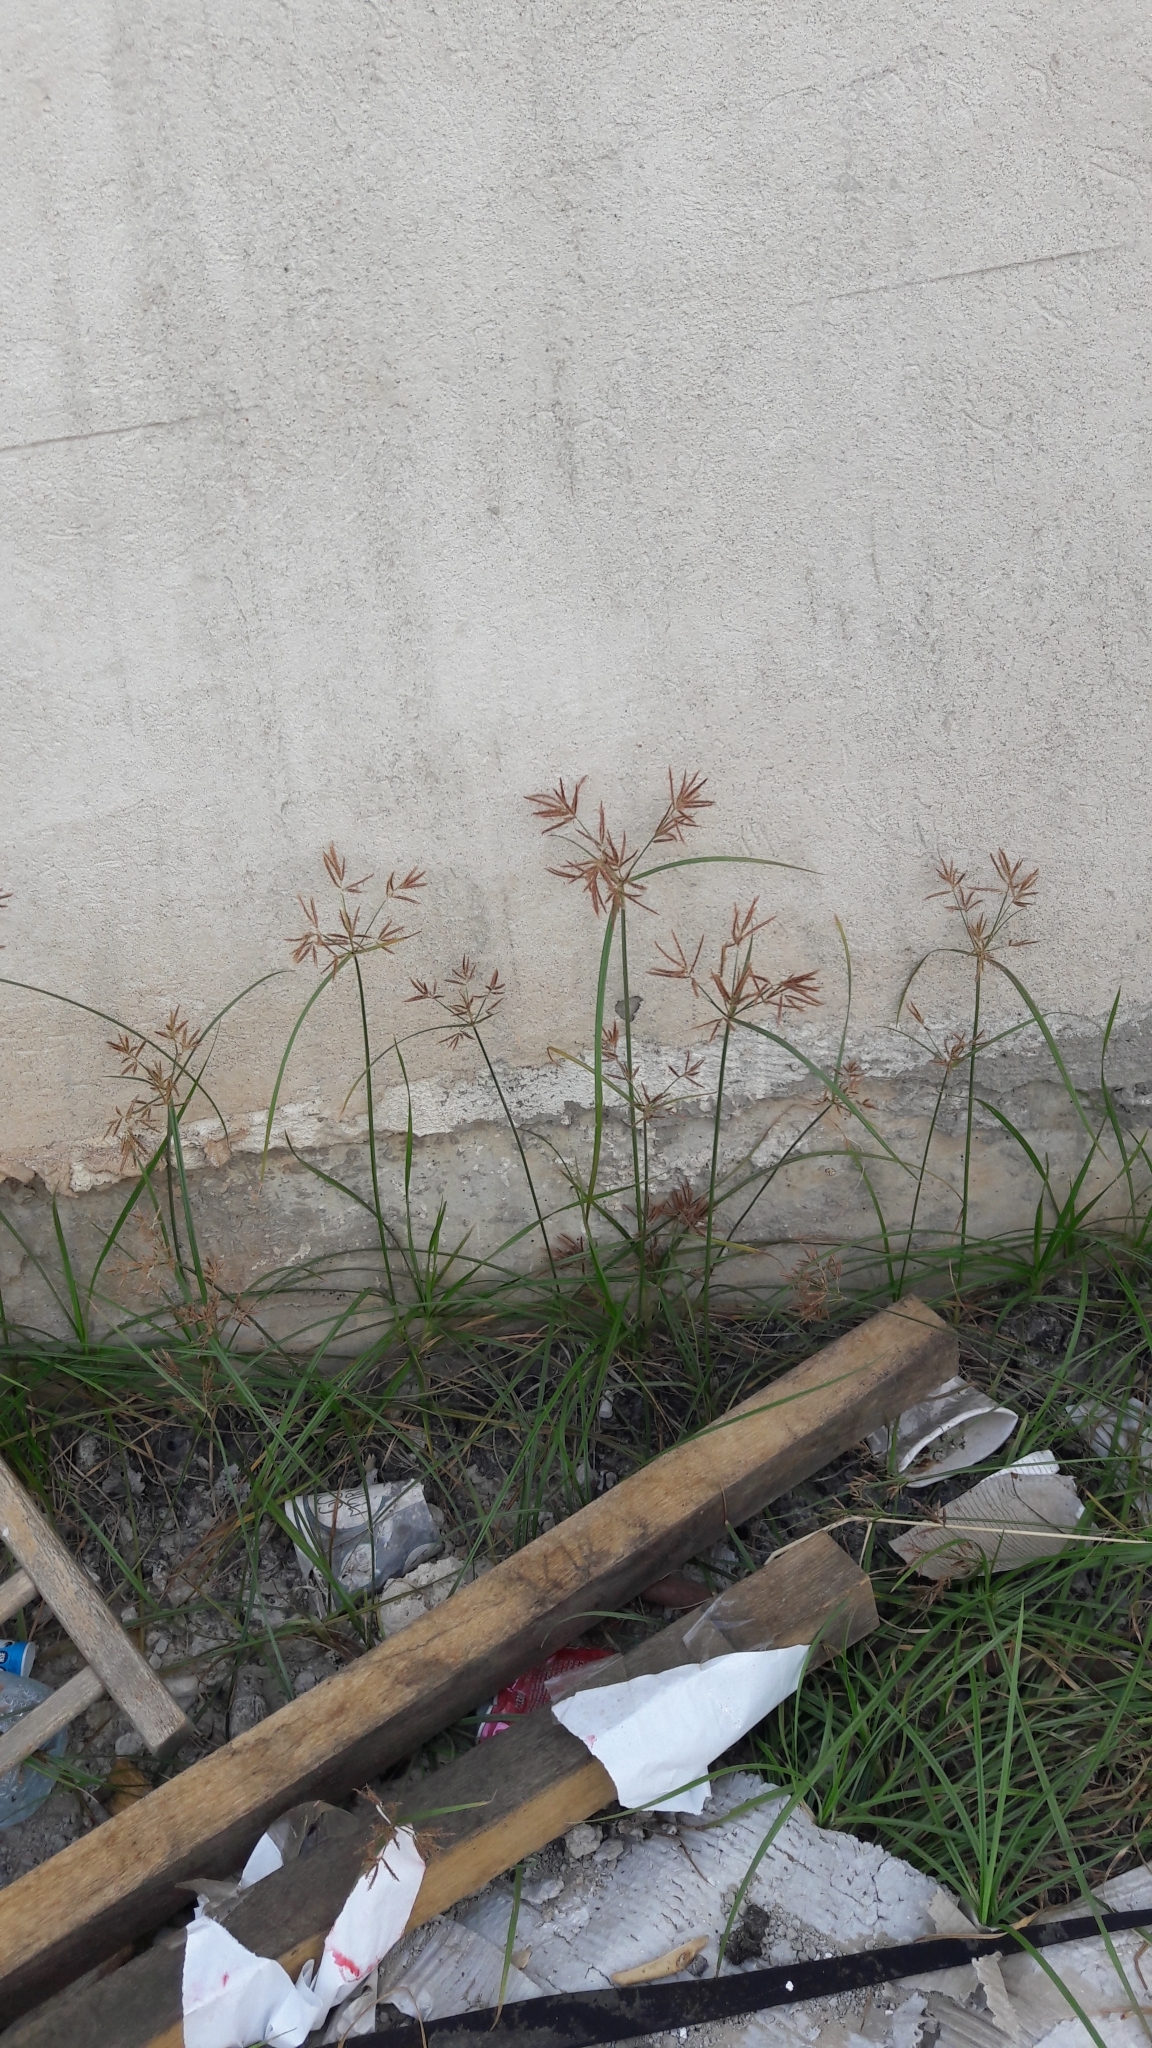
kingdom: Plantae
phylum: Tracheophyta
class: Liliopsida
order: Poales
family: Cyperaceae
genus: Cyperus
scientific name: Cyperus rotundus
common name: Nutgrass
